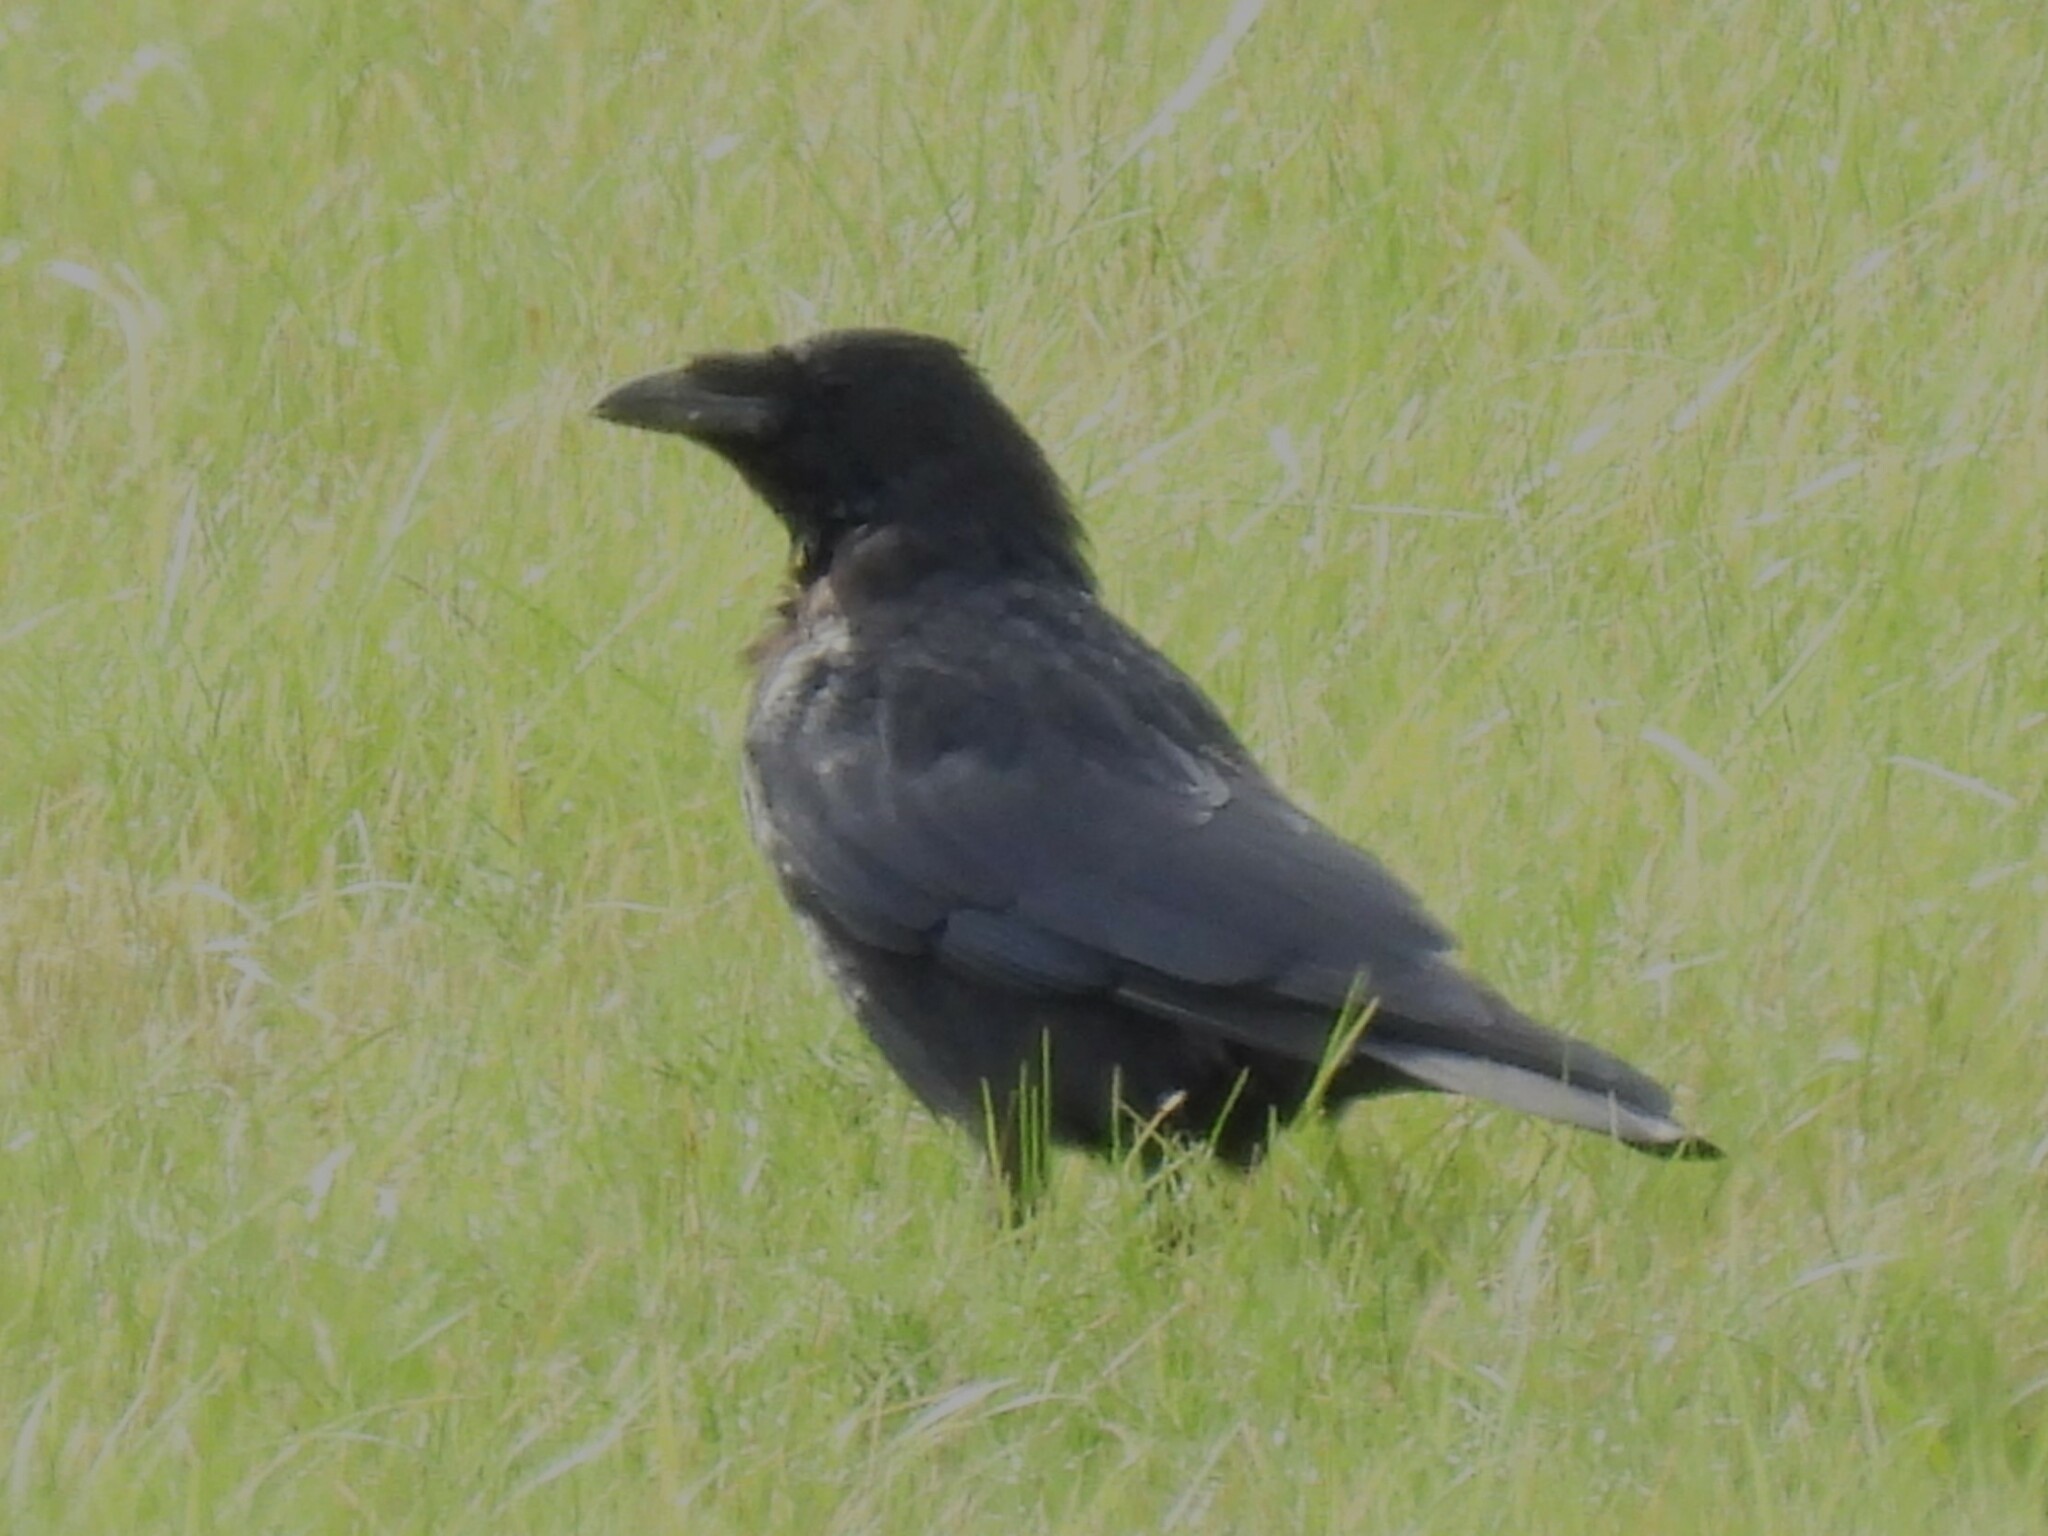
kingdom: Animalia
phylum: Chordata
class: Aves
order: Passeriformes
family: Corvidae
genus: Corvus
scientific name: Corvus corax
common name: Common raven
